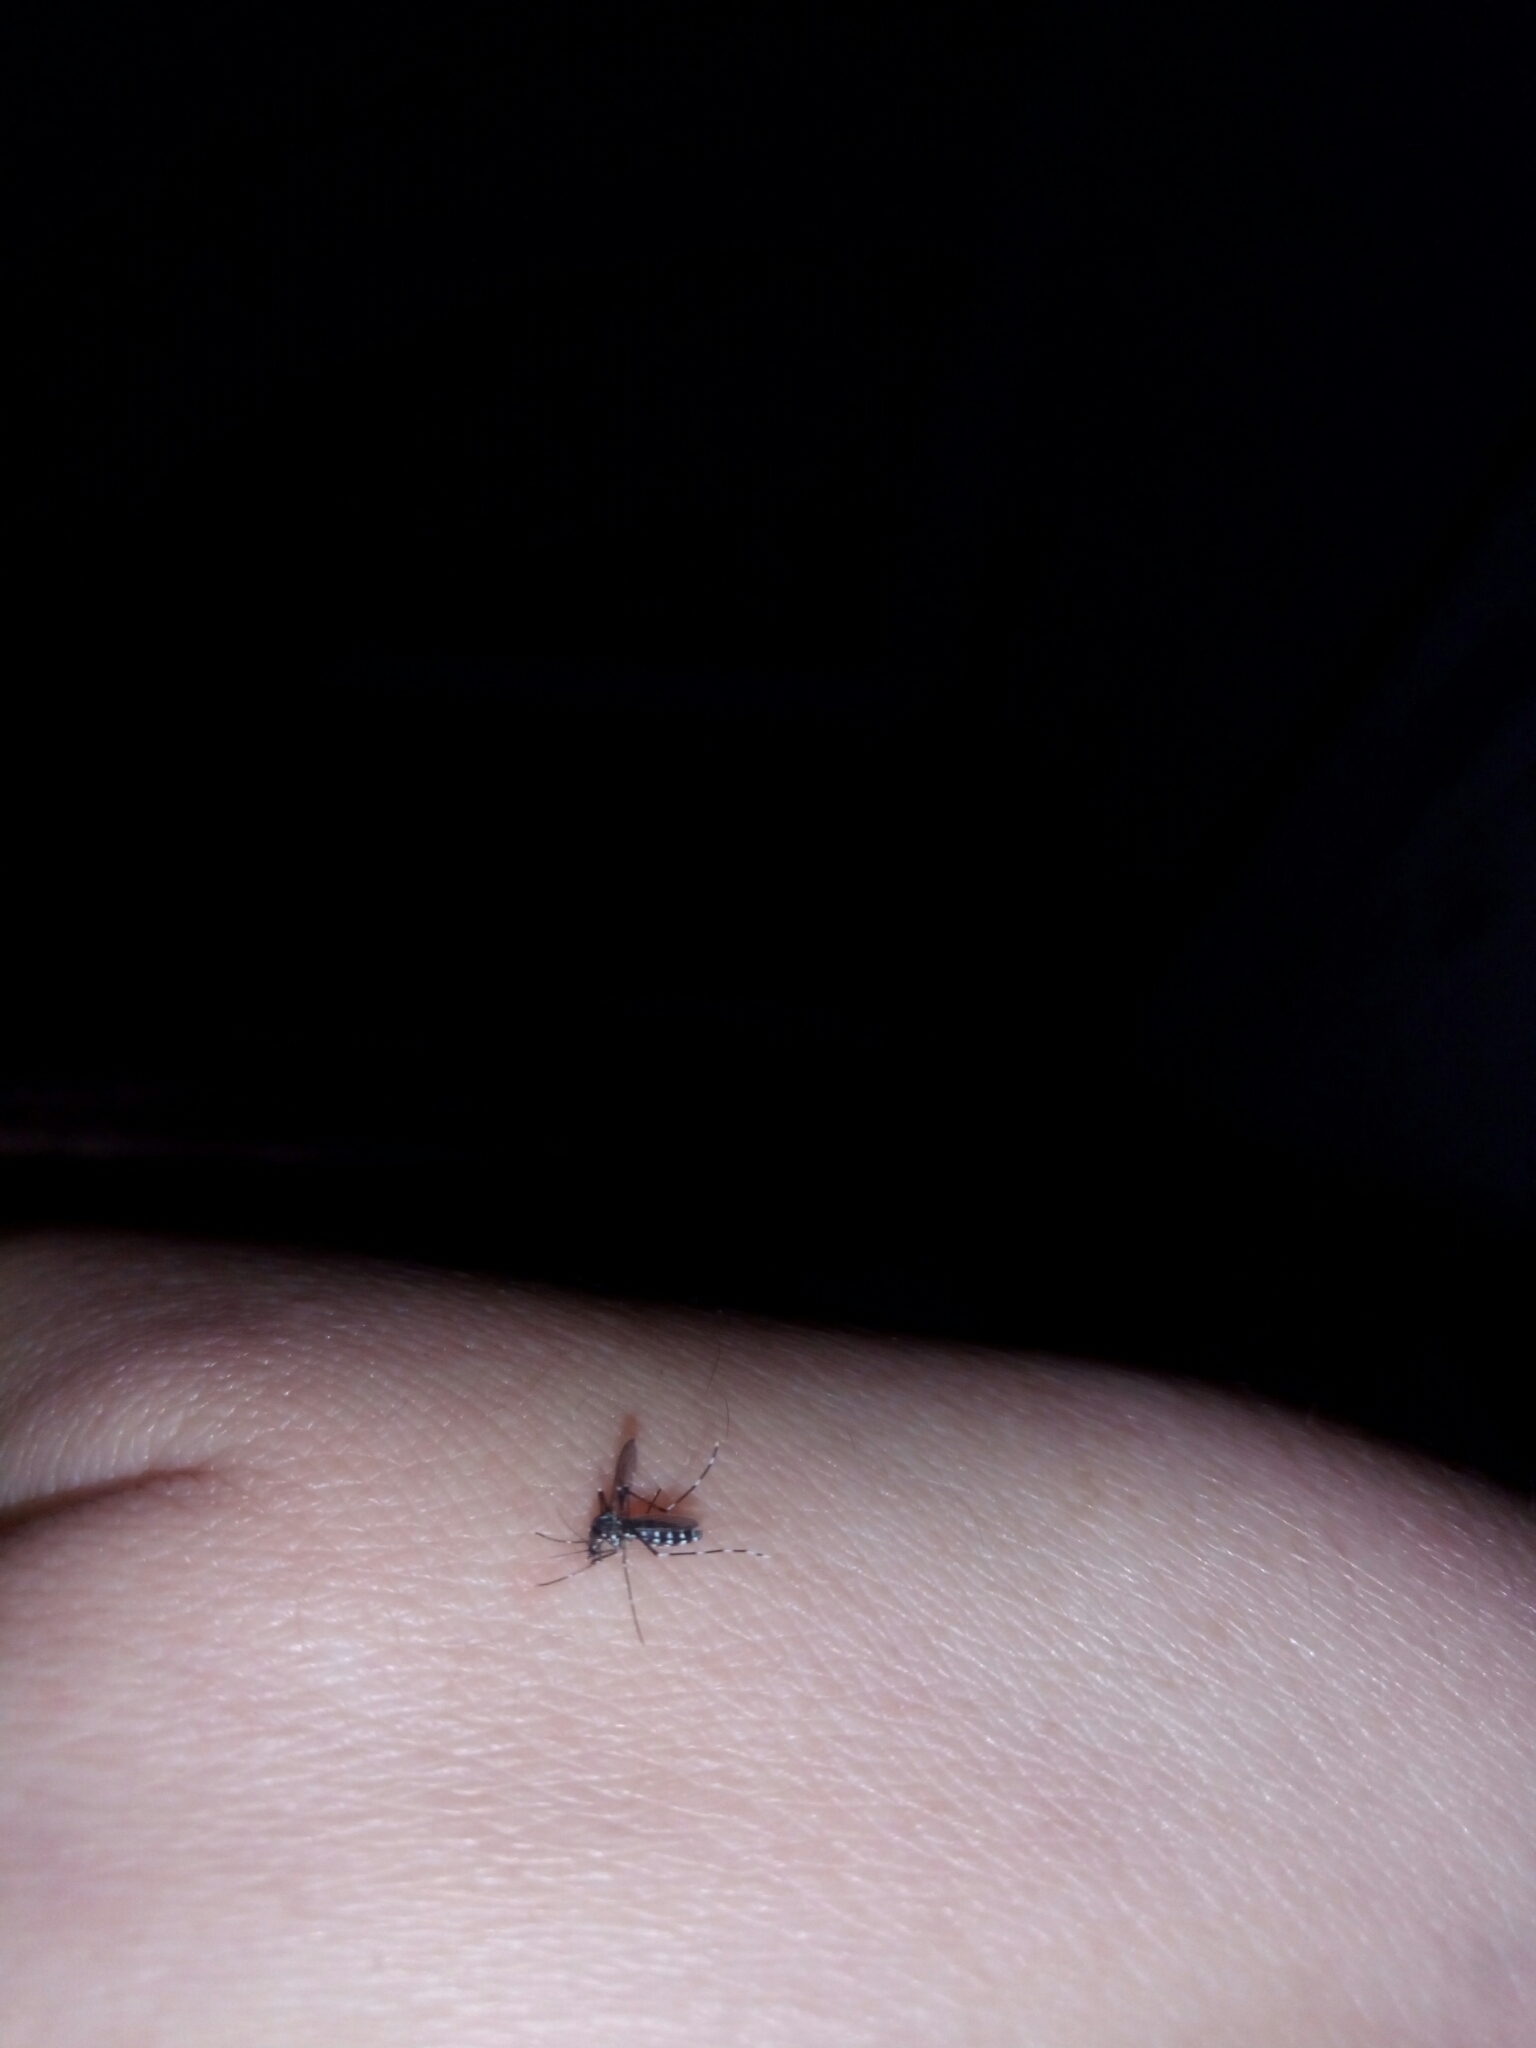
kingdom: Animalia
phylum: Arthropoda
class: Insecta
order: Diptera
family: Culicidae
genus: Aedes
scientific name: Aedes albopictus
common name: Tiger mosquito
